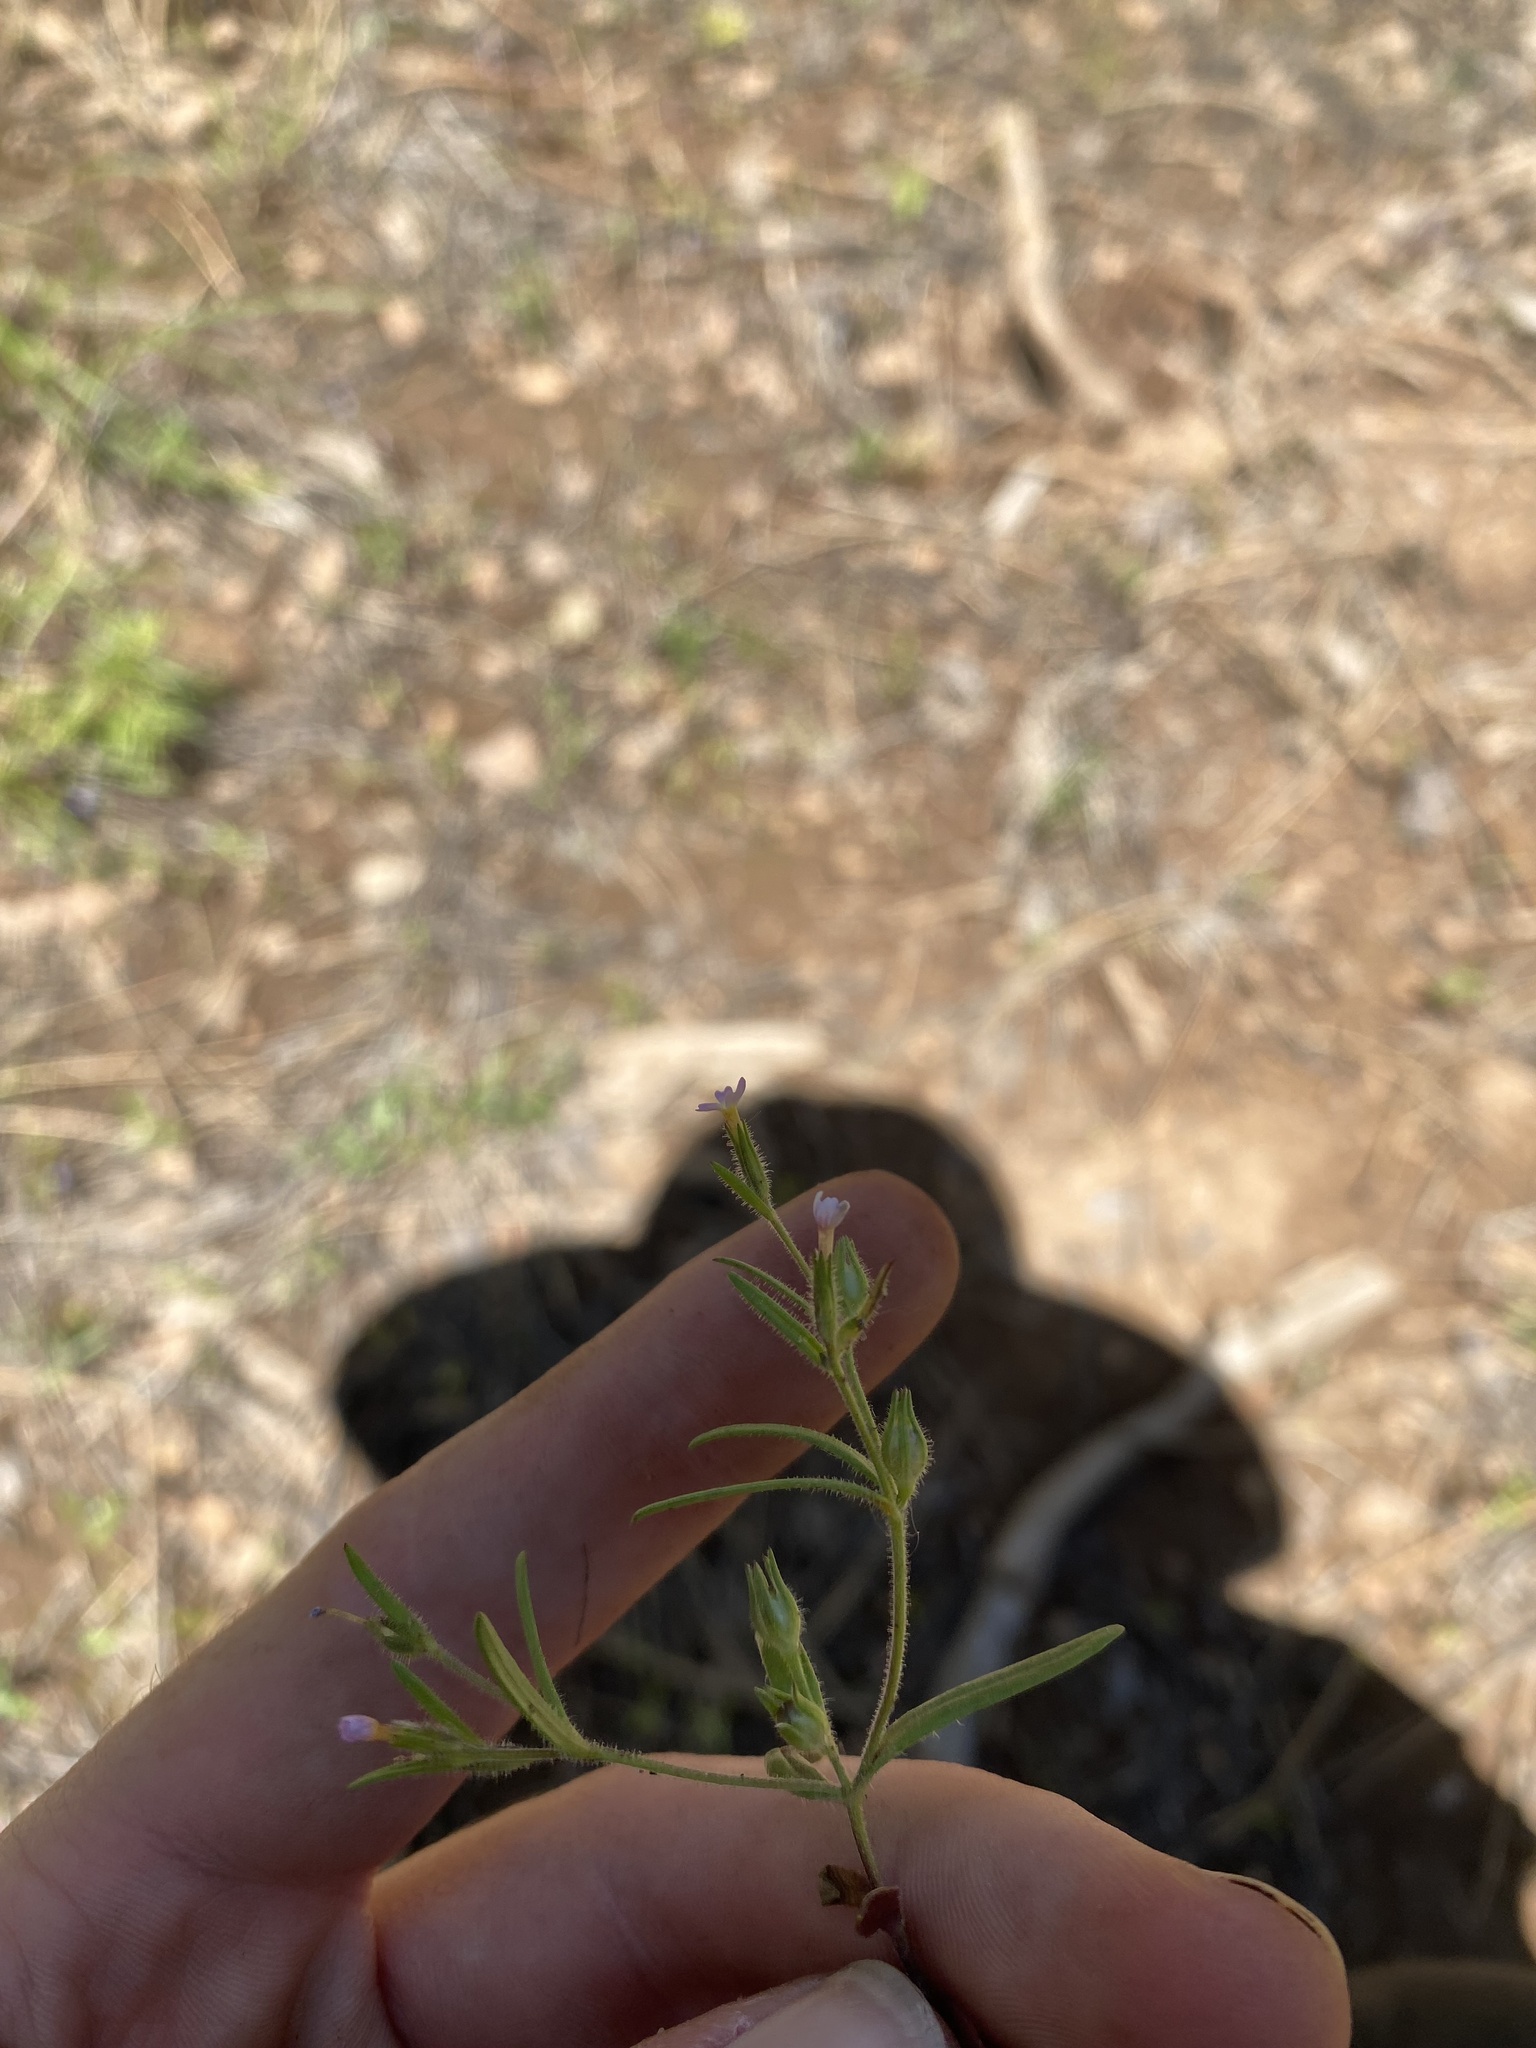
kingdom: Plantae
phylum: Tracheophyta
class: Magnoliopsida
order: Ericales
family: Polemoniaceae
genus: Phlox
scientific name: Phlox gracilis
